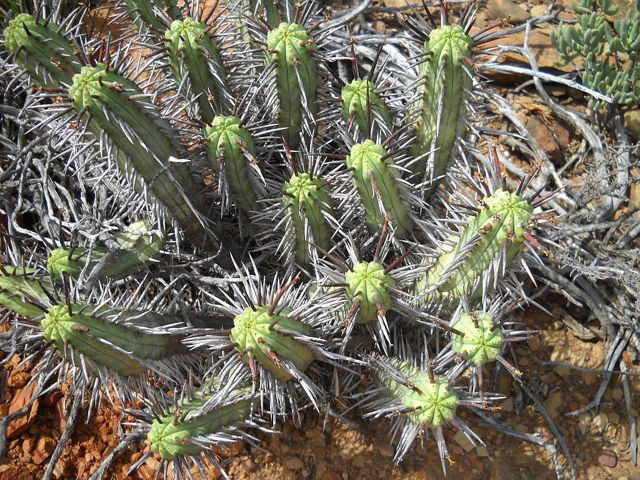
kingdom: Plantae
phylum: Tracheophyta
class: Magnoliopsida
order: Malpighiales
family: Euphorbiaceae
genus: Euphorbia
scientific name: Euphorbia heptagona
